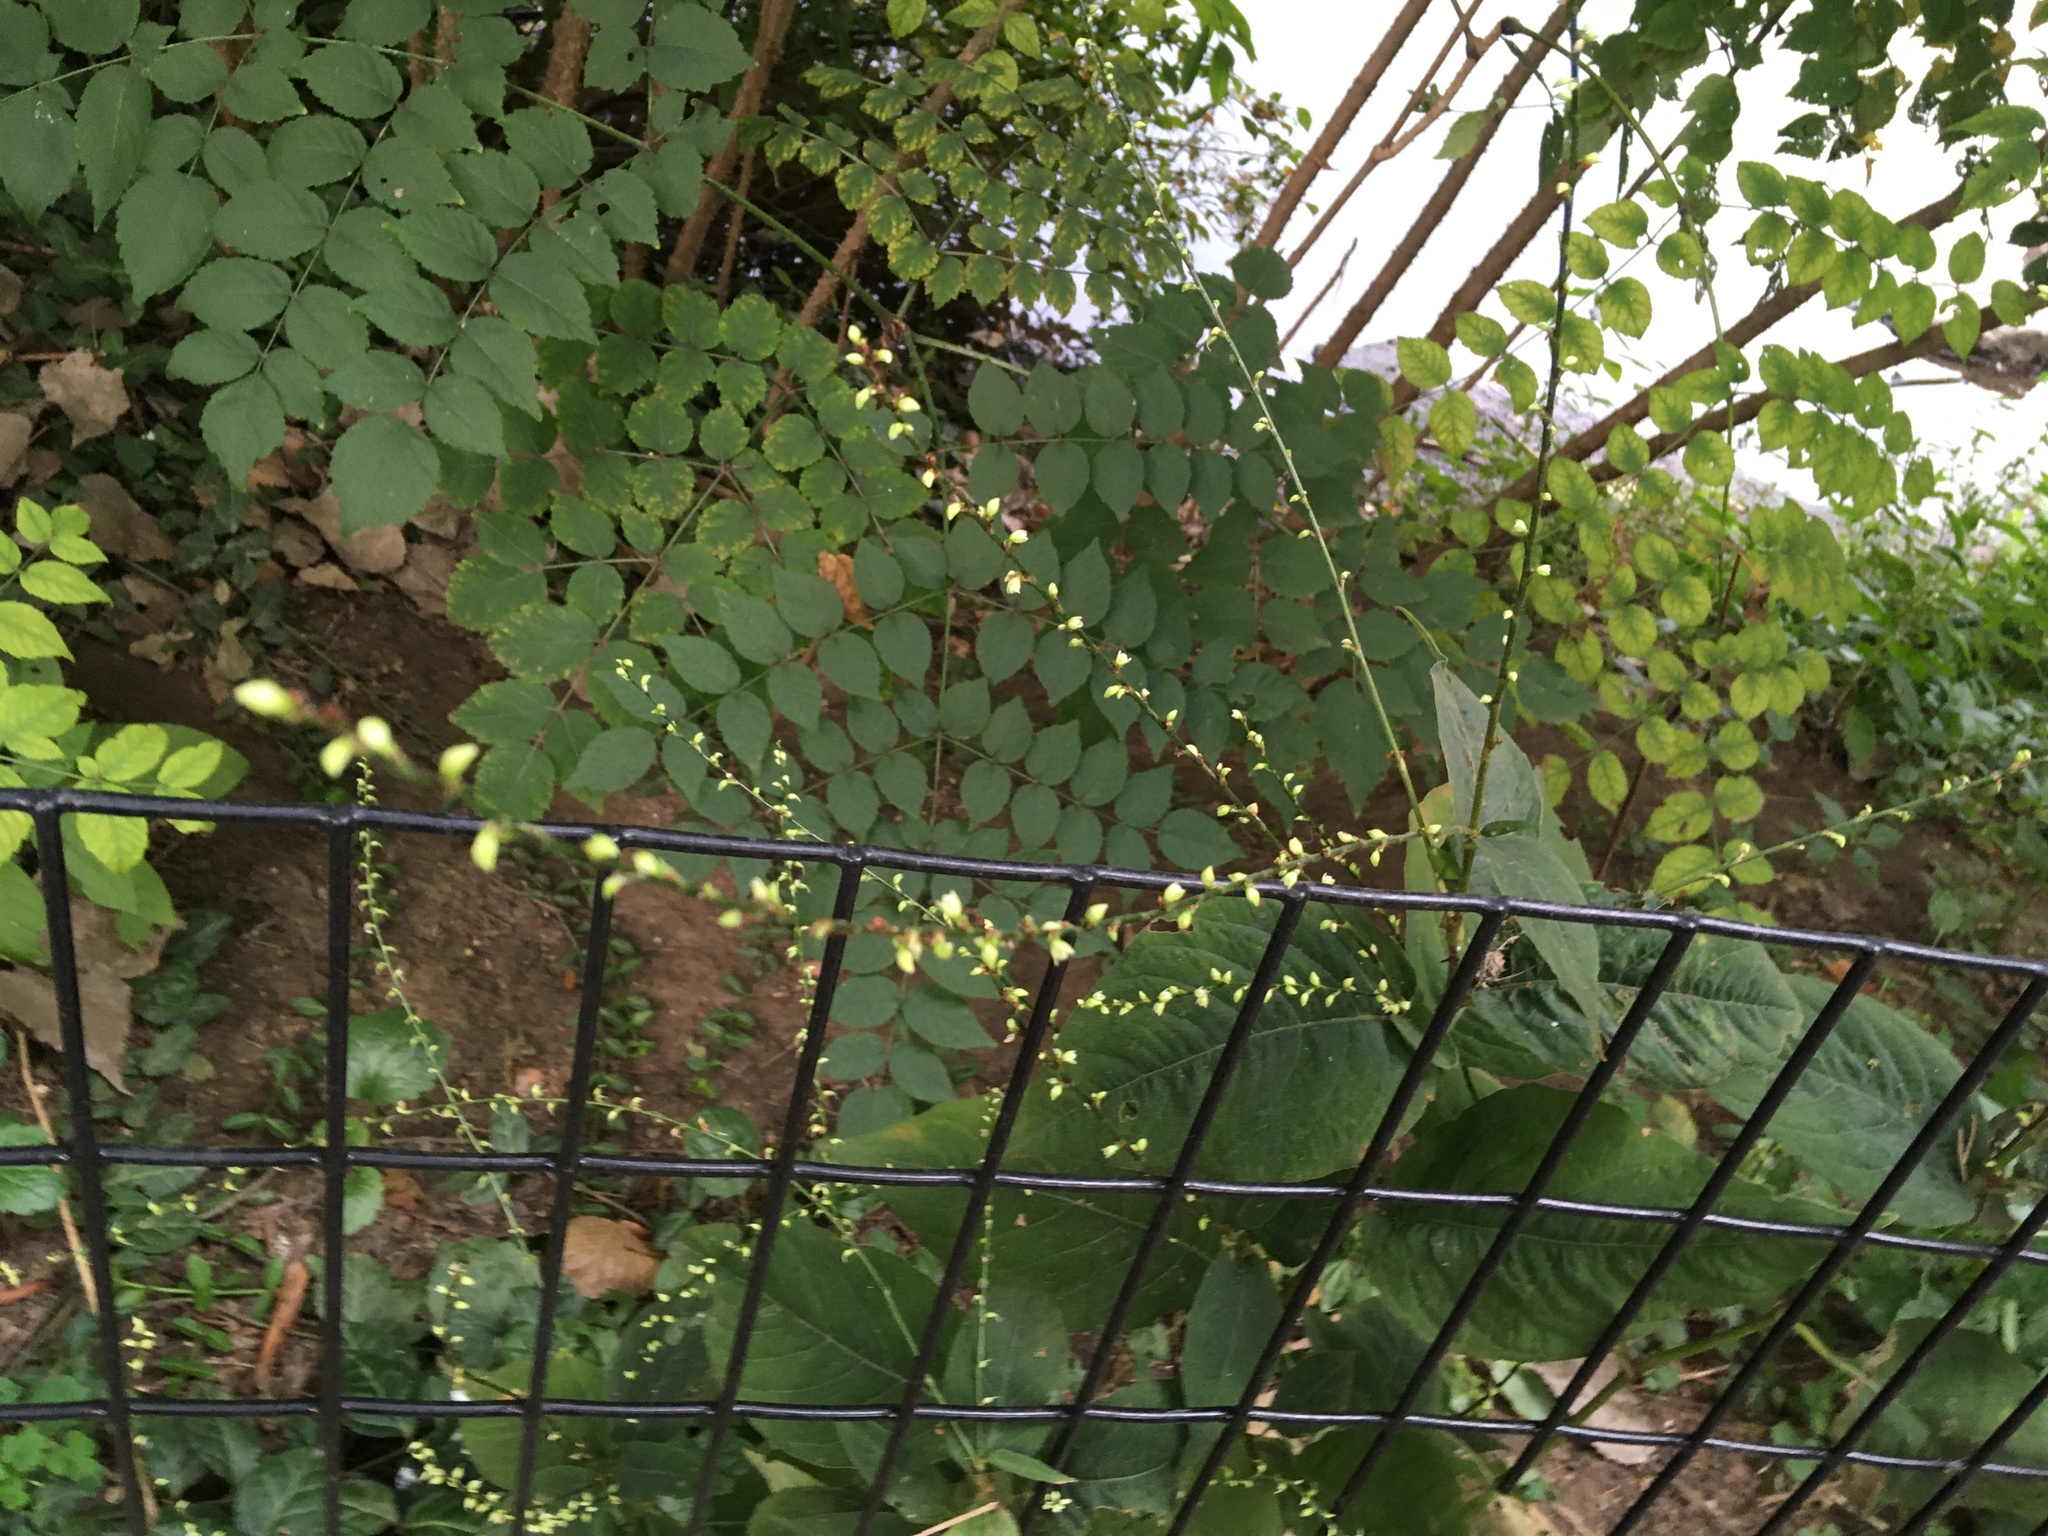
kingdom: Plantae
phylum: Tracheophyta
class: Magnoliopsida
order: Caryophyllales
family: Polygonaceae
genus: Persicaria
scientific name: Persicaria virginiana
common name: Jumpseed
